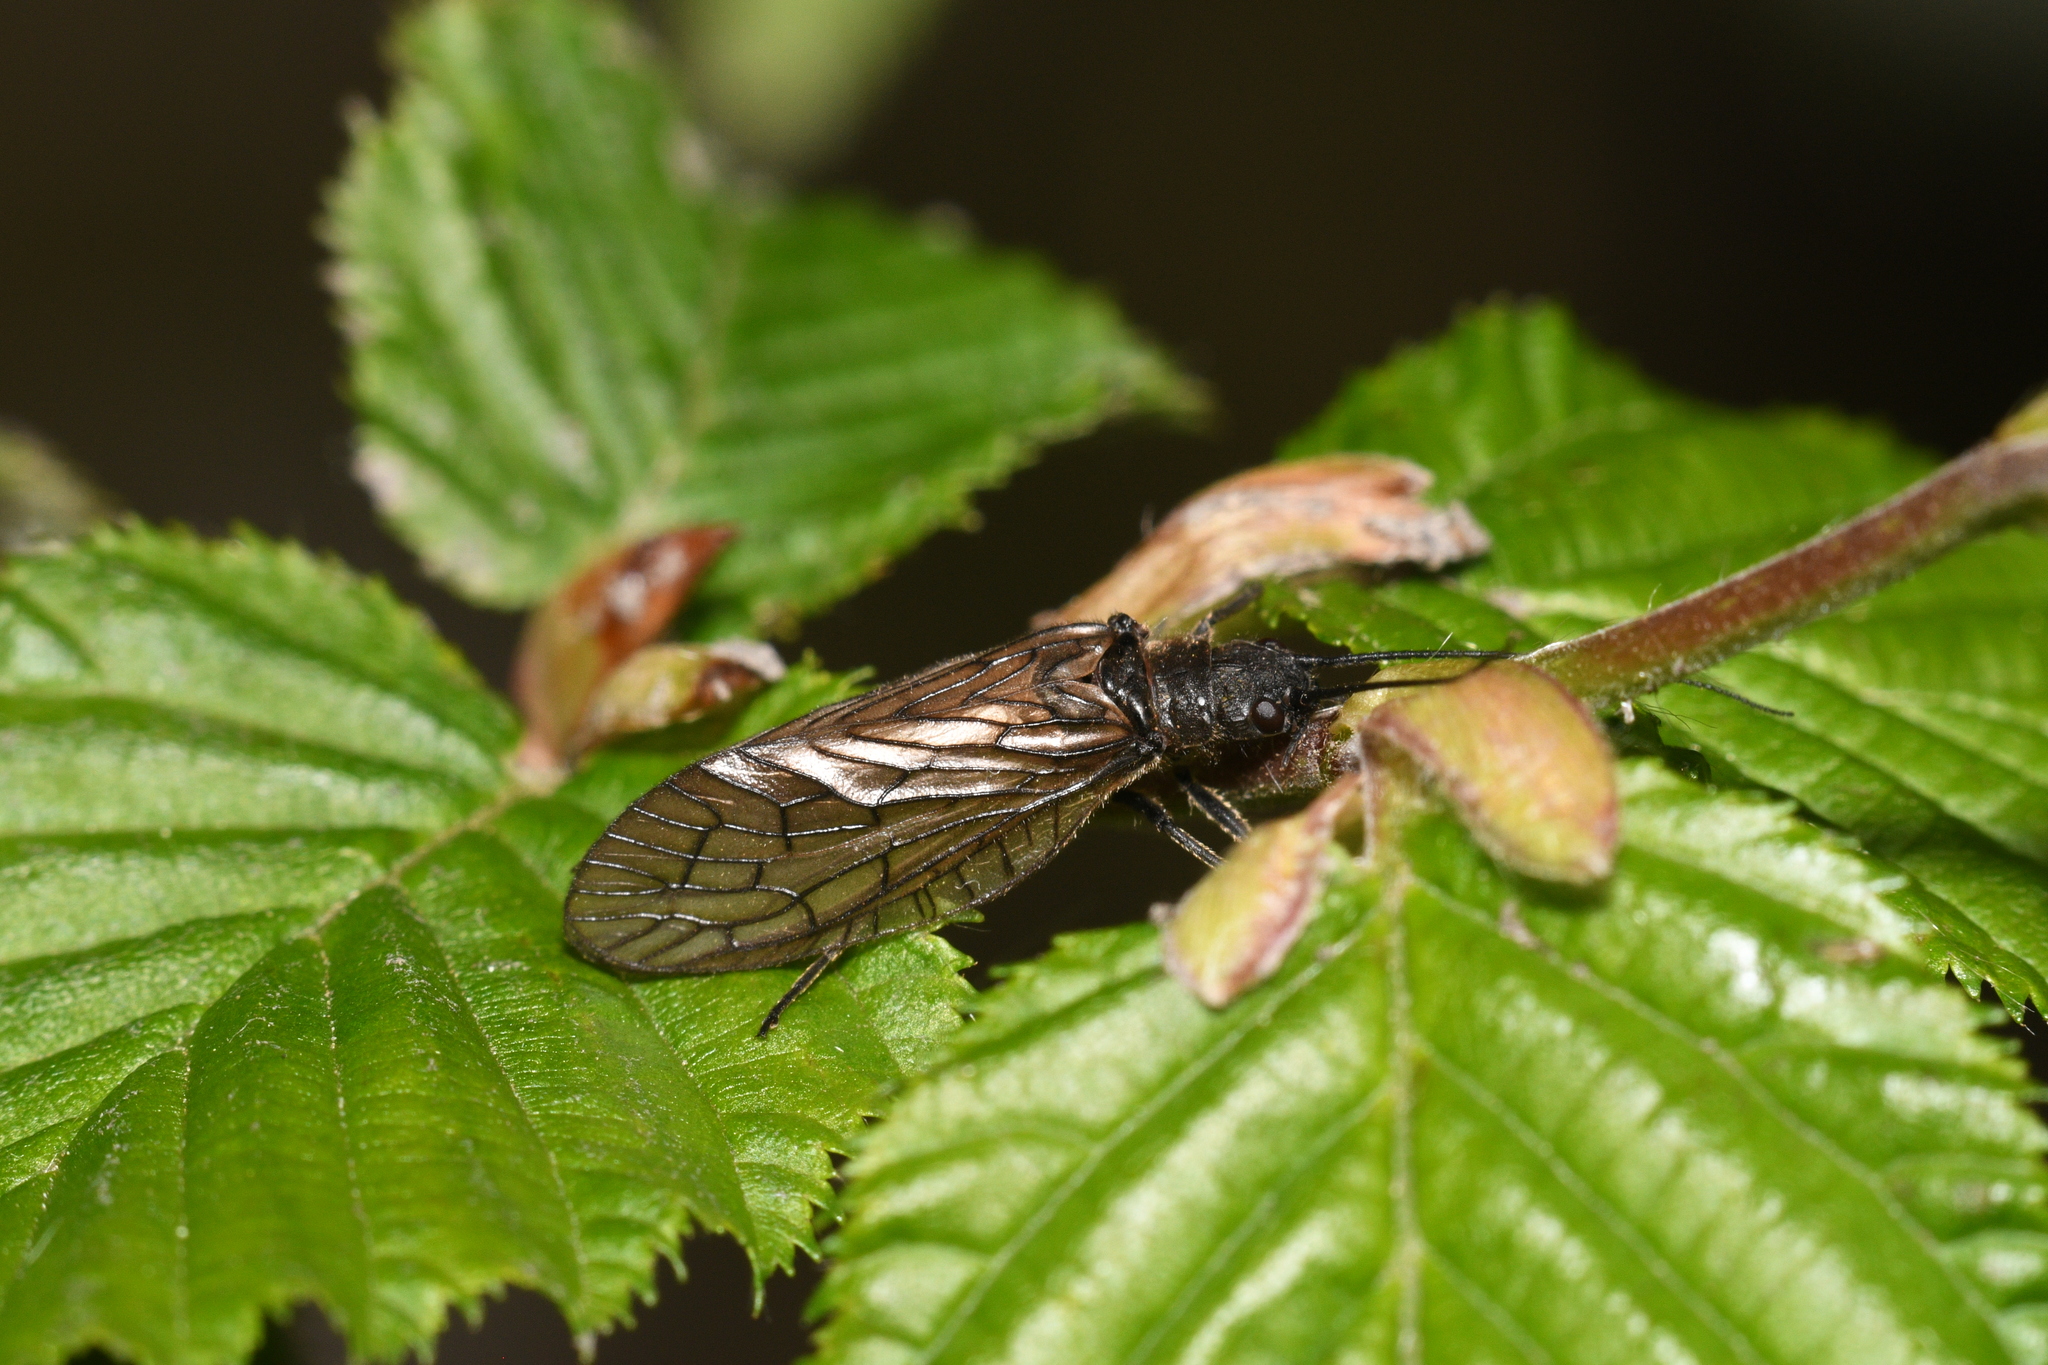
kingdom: Animalia
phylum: Arthropoda
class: Insecta
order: Megaloptera
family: Sialidae
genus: Sialis
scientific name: Sialis
